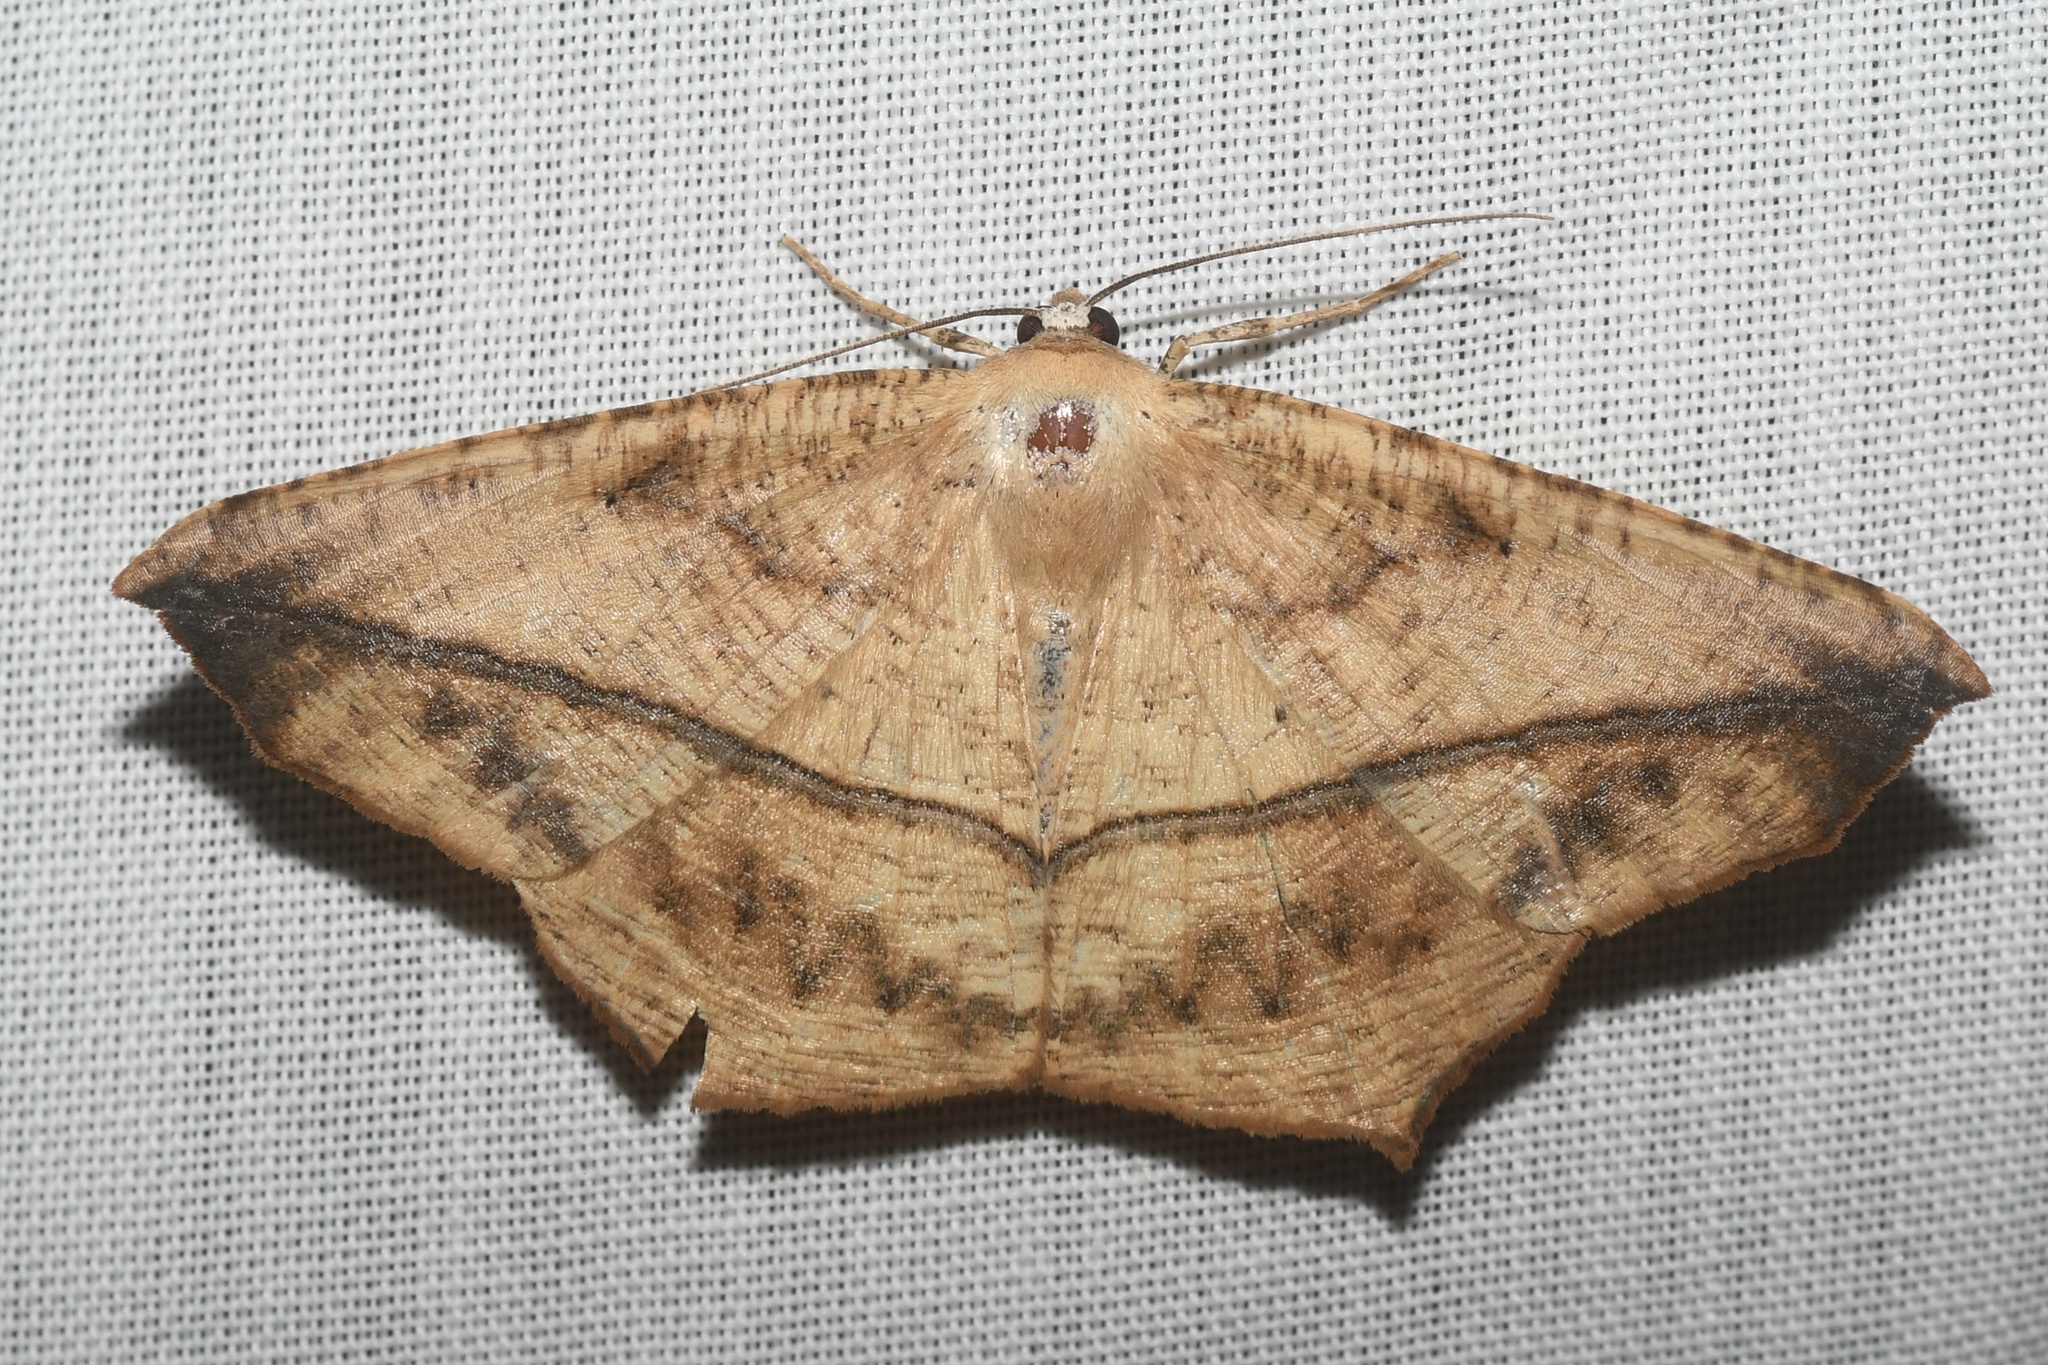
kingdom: Animalia
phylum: Arthropoda
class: Insecta
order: Lepidoptera
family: Geometridae
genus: Prochoerodes
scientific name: Prochoerodes lineola
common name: Large maple spanworm
